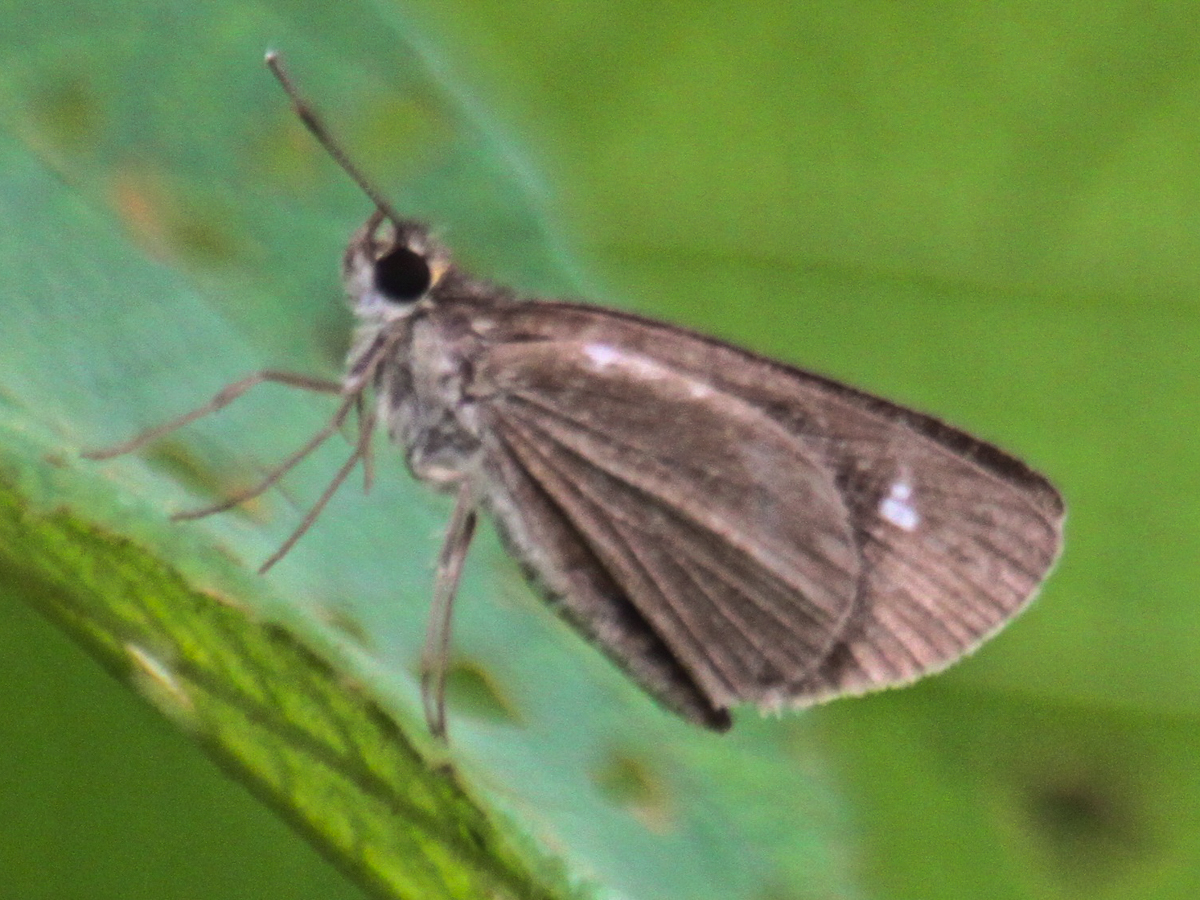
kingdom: Animalia
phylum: Arthropoda
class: Insecta
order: Lepidoptera
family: Hesperiidae
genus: Suada
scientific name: Suada swerga
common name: Grass bob
